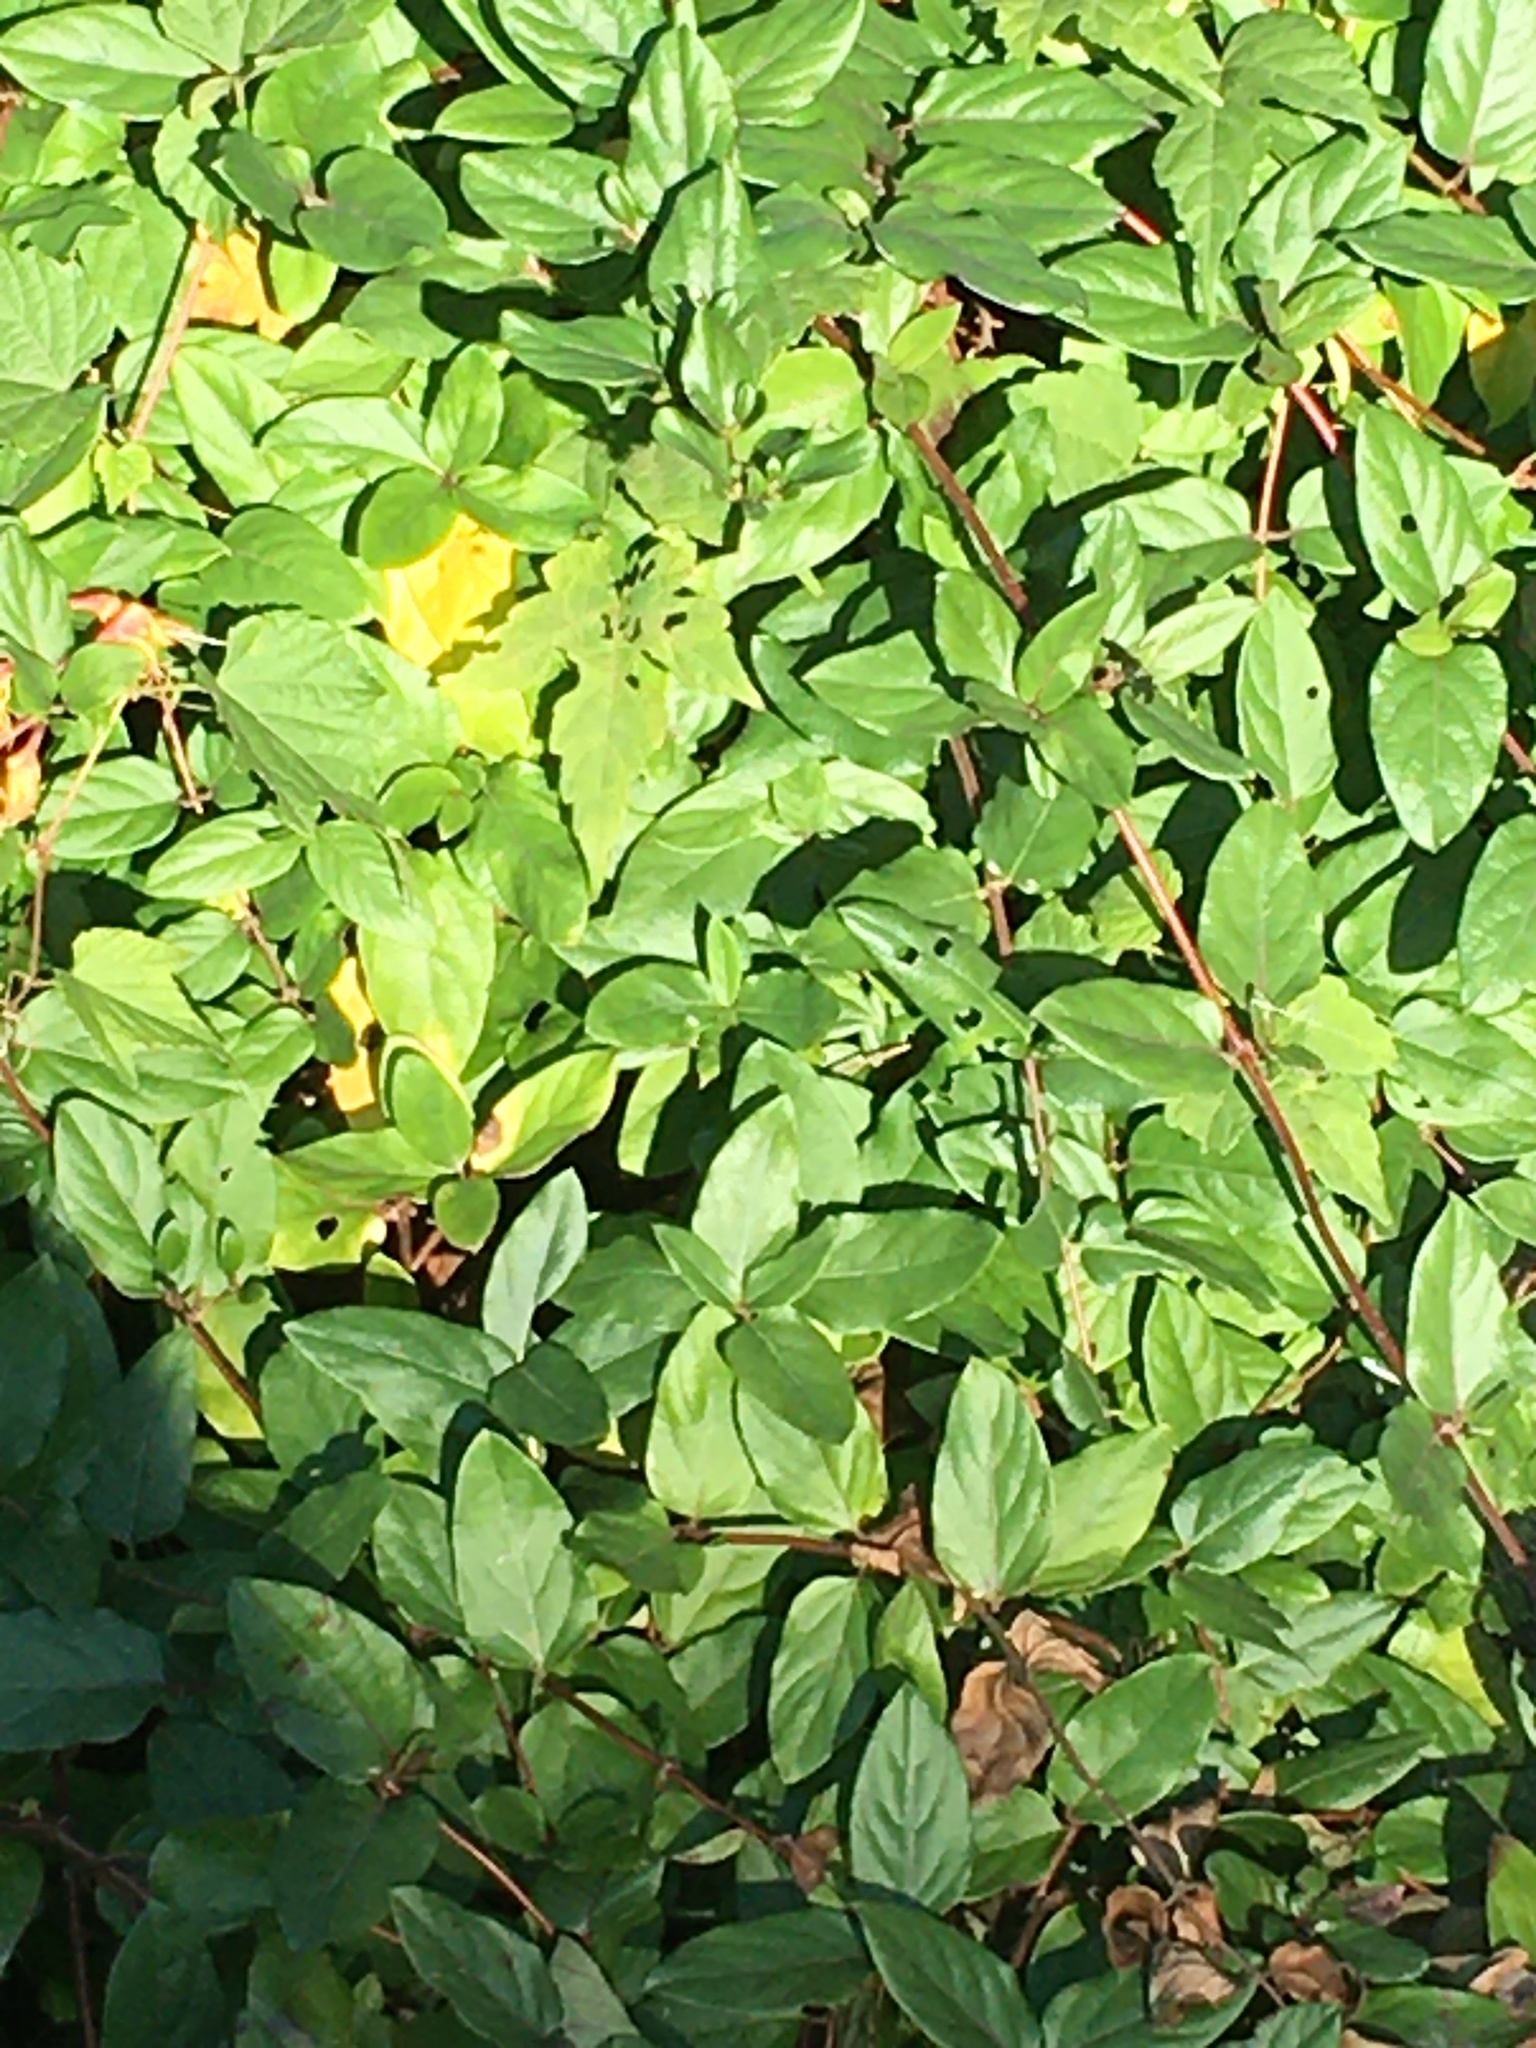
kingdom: Plantae
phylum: Tracheophyta
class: Magnoliopsida
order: Dipsacales
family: Caprifoliaceae
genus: Lonicera
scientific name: Lonicera japonica
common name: Japanese honeysuckle
